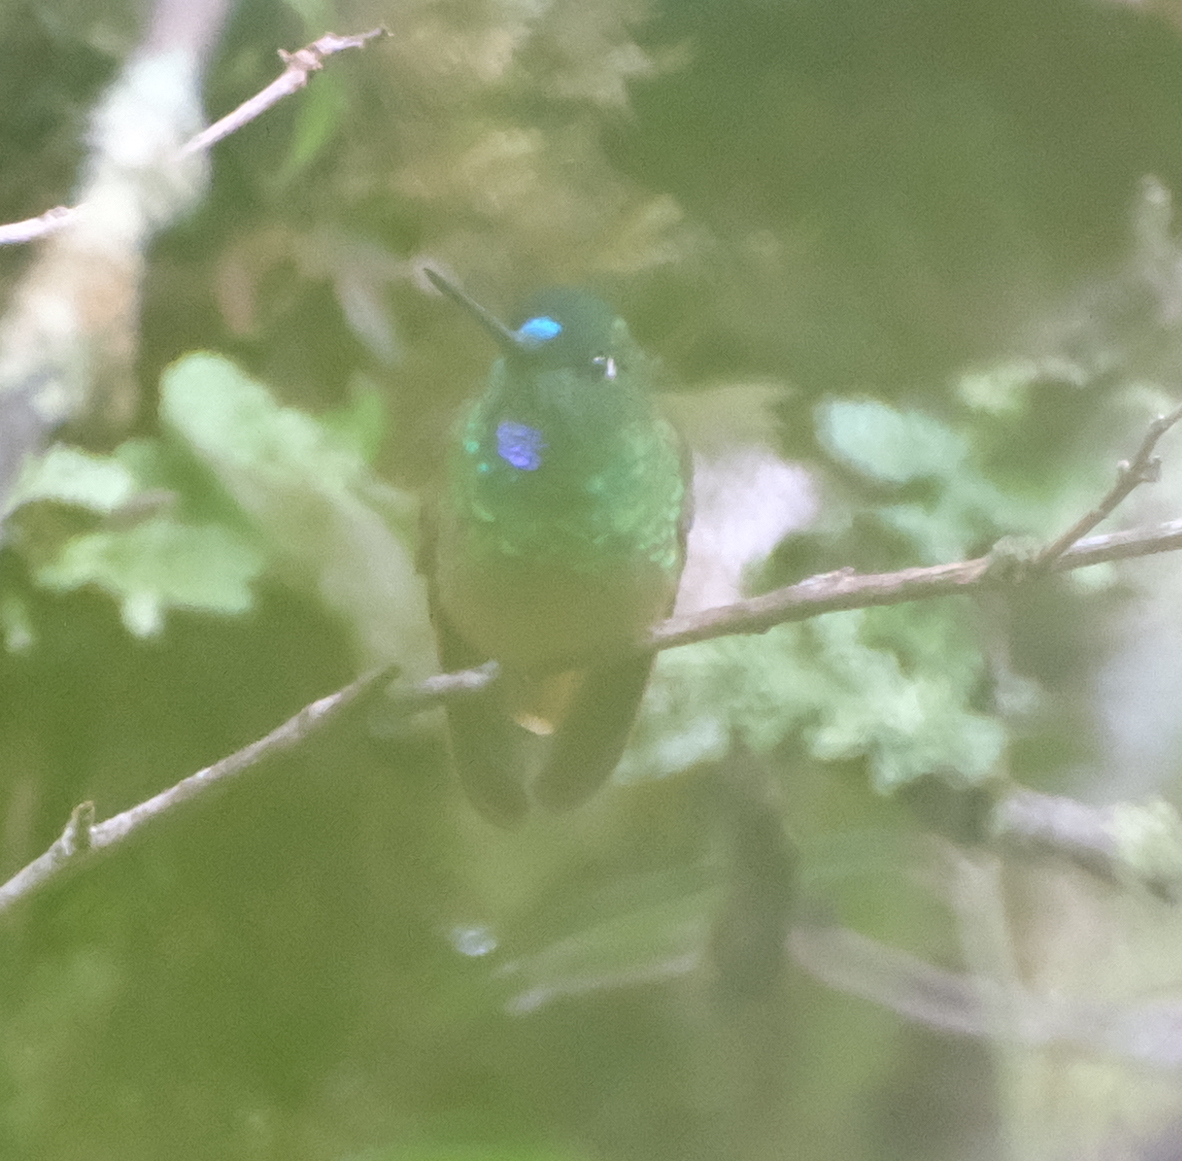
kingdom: Animalia
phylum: Chordata
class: Aves
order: Apodiformes
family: Trochilidae
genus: Coeligena
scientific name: Coeligena violifer
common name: Violet-throated starfrontlet
